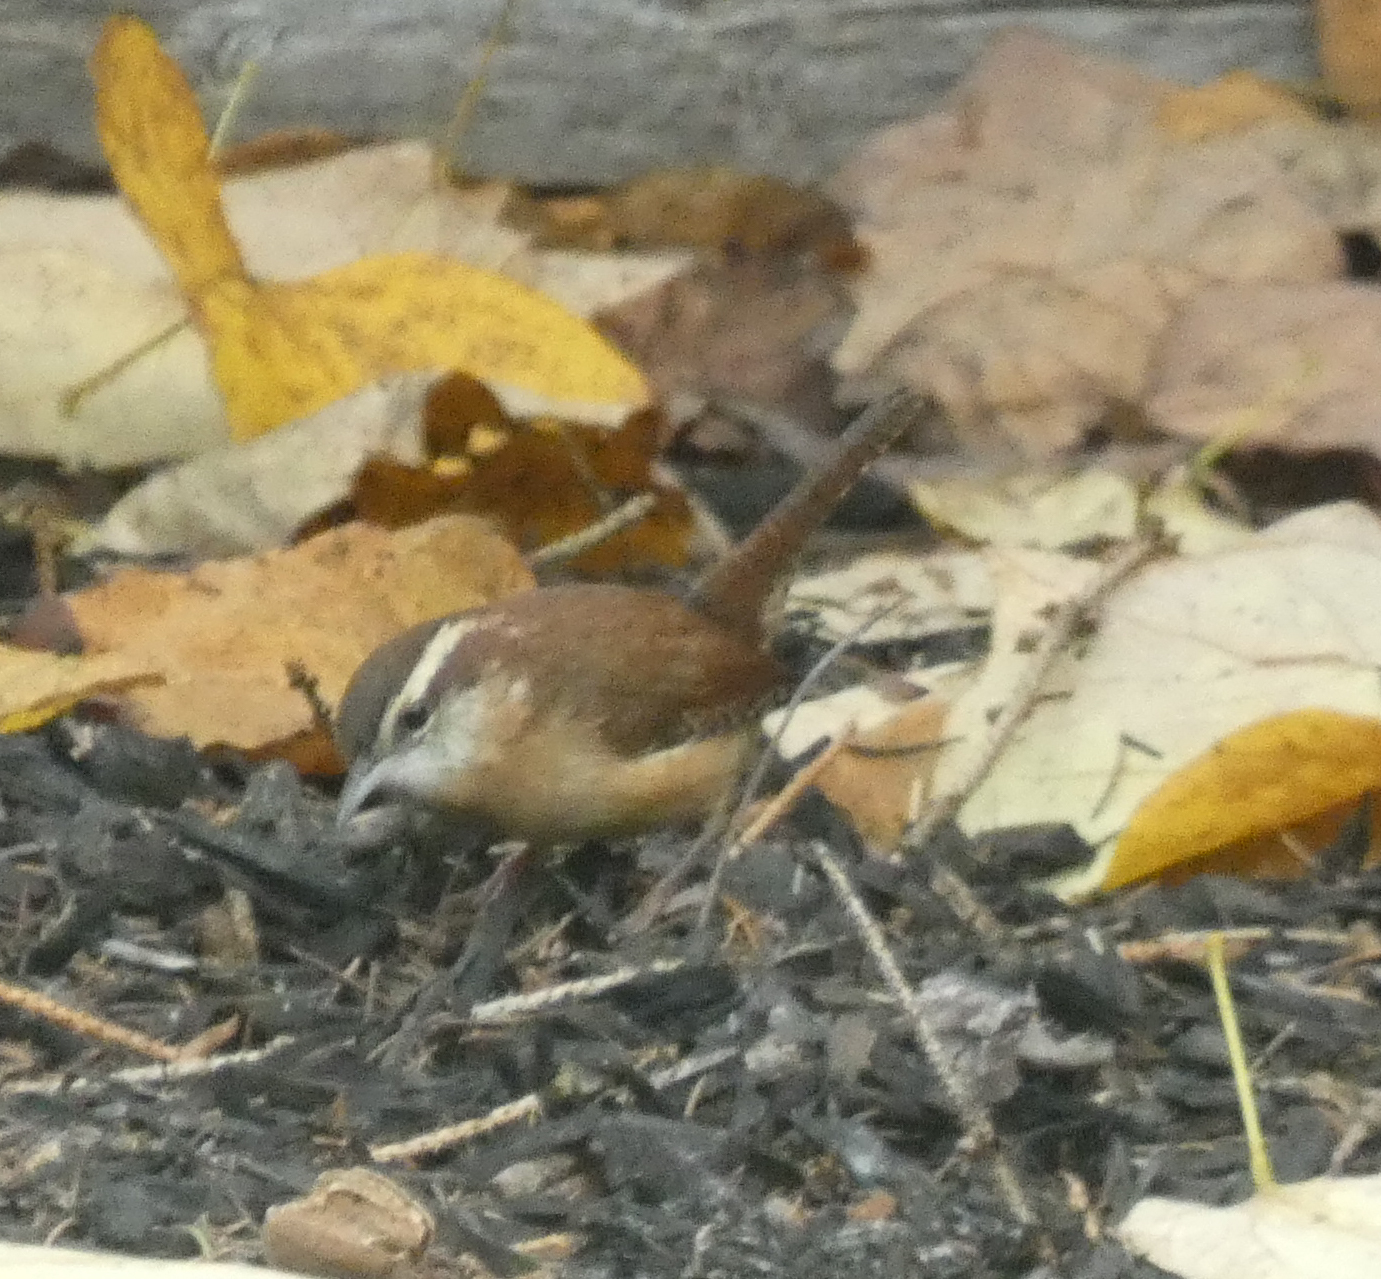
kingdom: Animalia
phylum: Chordata
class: Aves
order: Passeriformes
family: Troglodytidae
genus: Thryothorus
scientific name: Thryothorus ludovicianus
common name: Carolina wren
